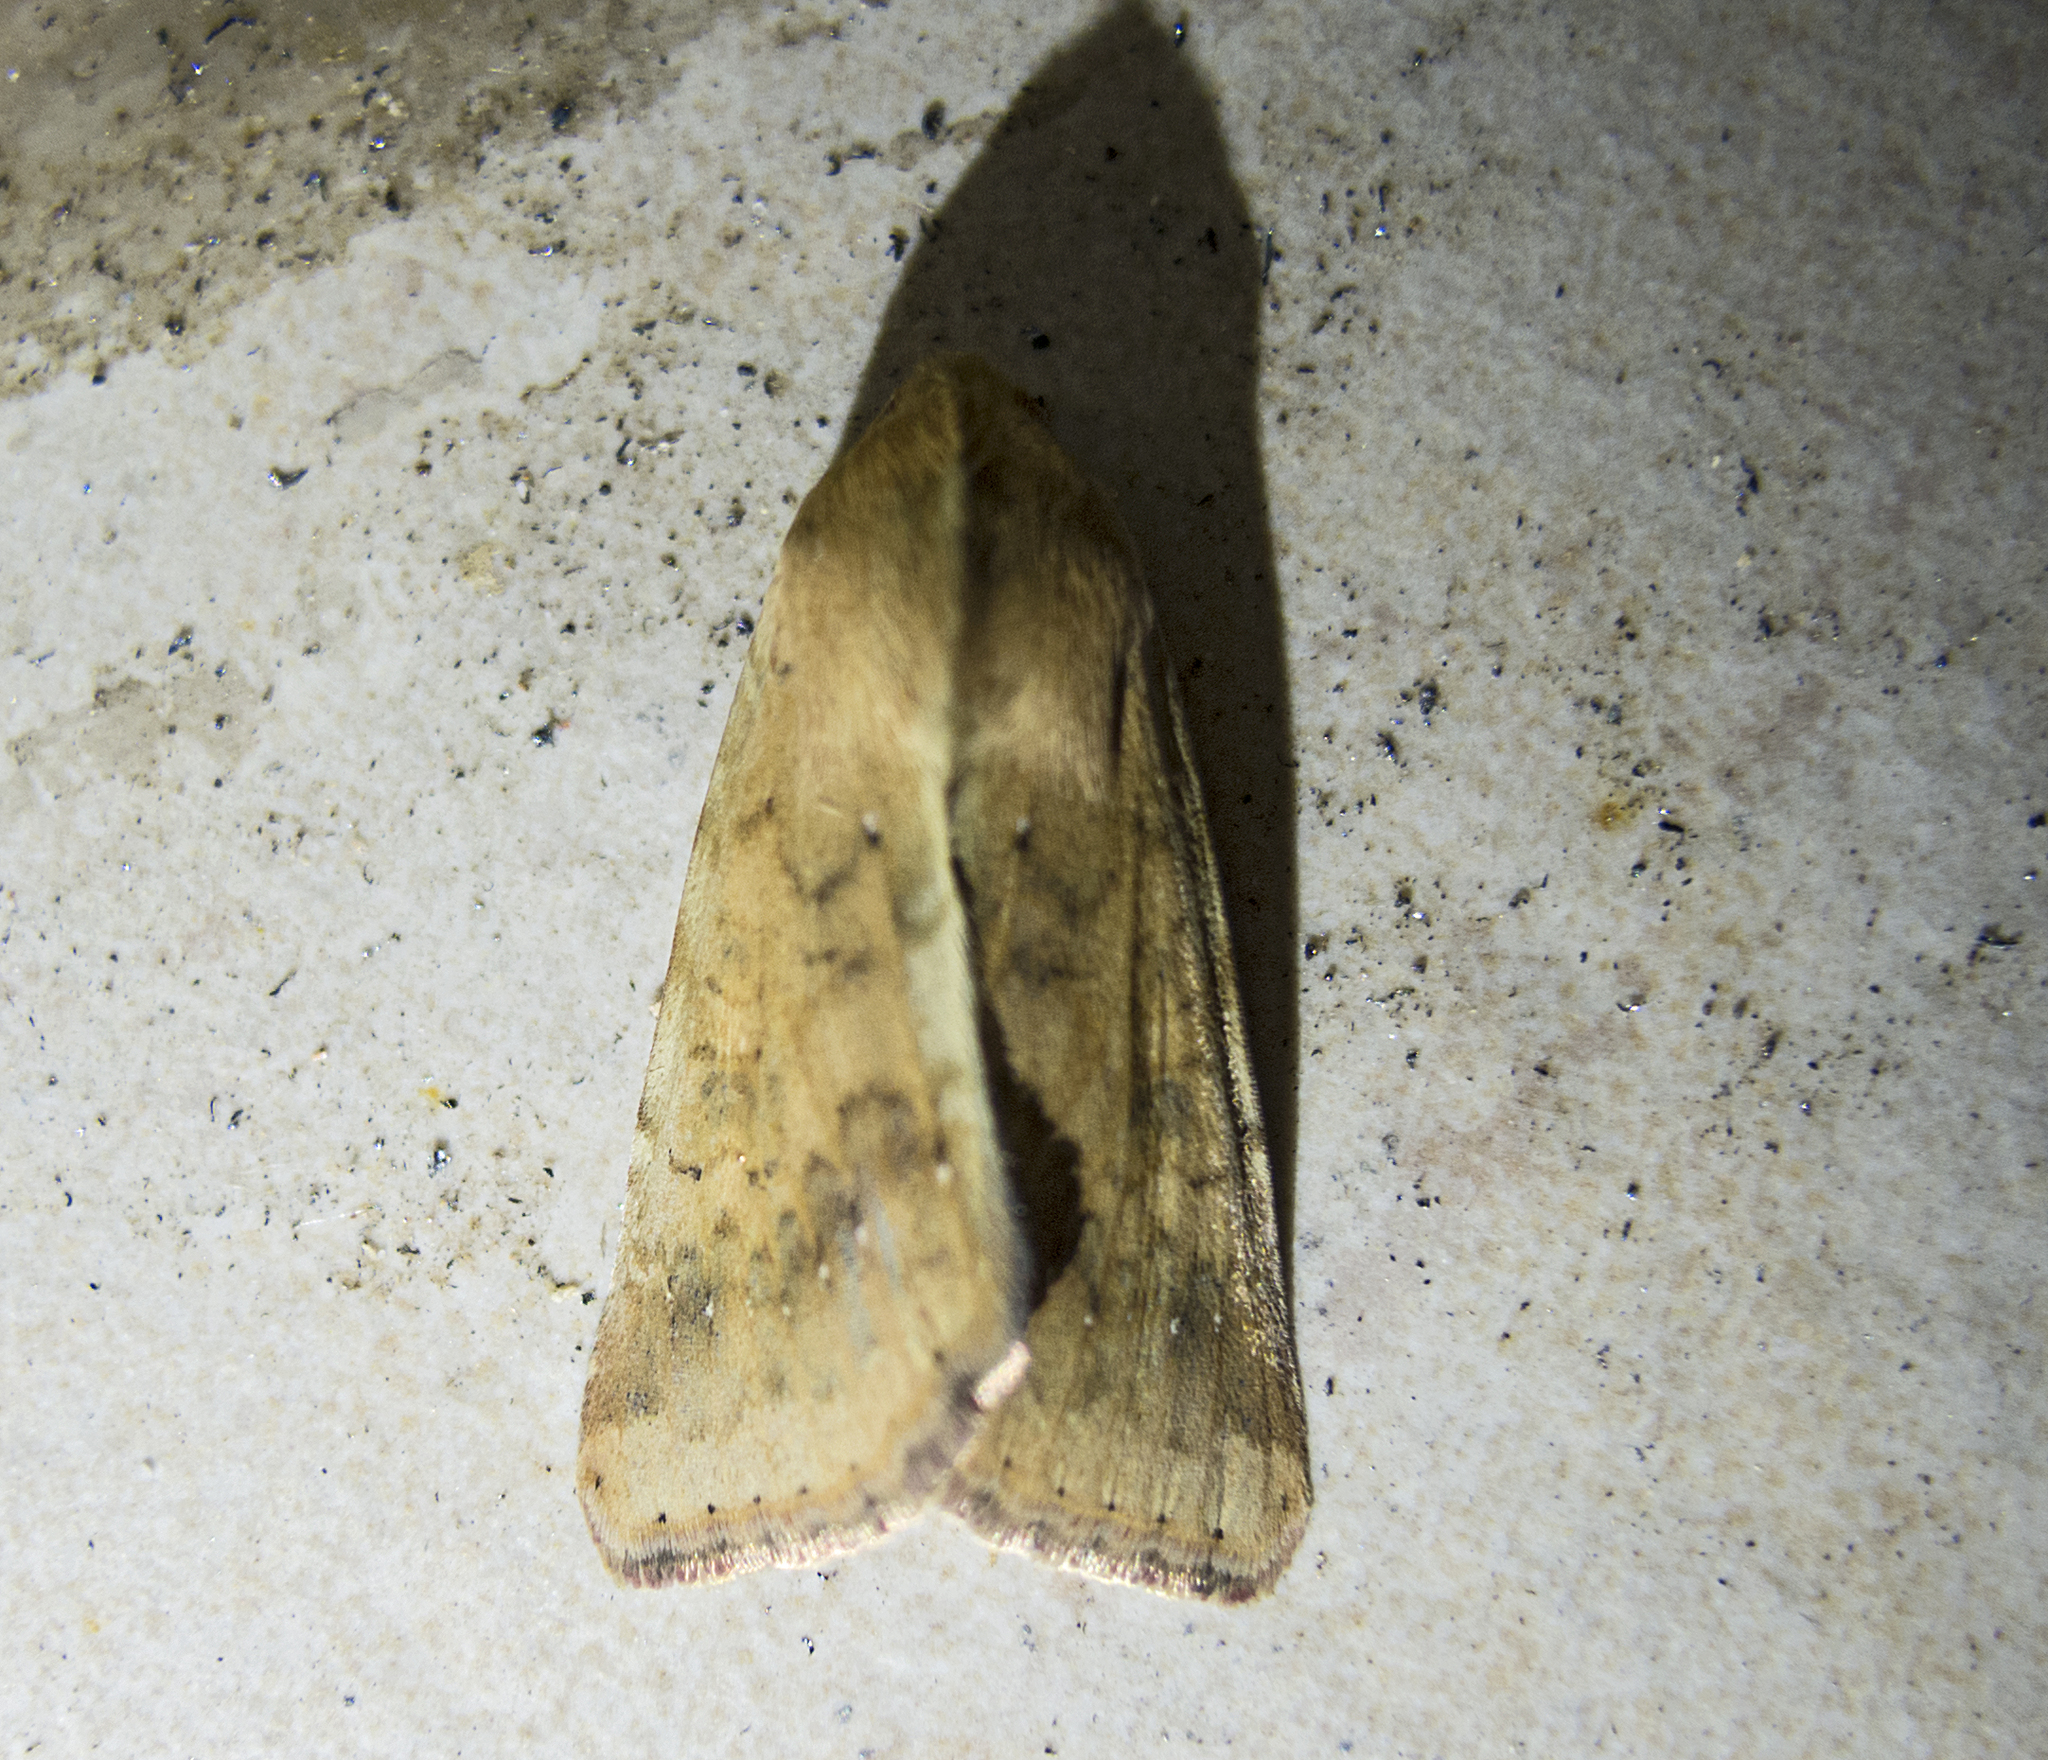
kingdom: Animalia
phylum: Arthropoda
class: Insecta
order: Lepidoptera
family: Noctuidae
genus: Helicoverpa
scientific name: Helicoverpa armigera
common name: Cotton bollworm
